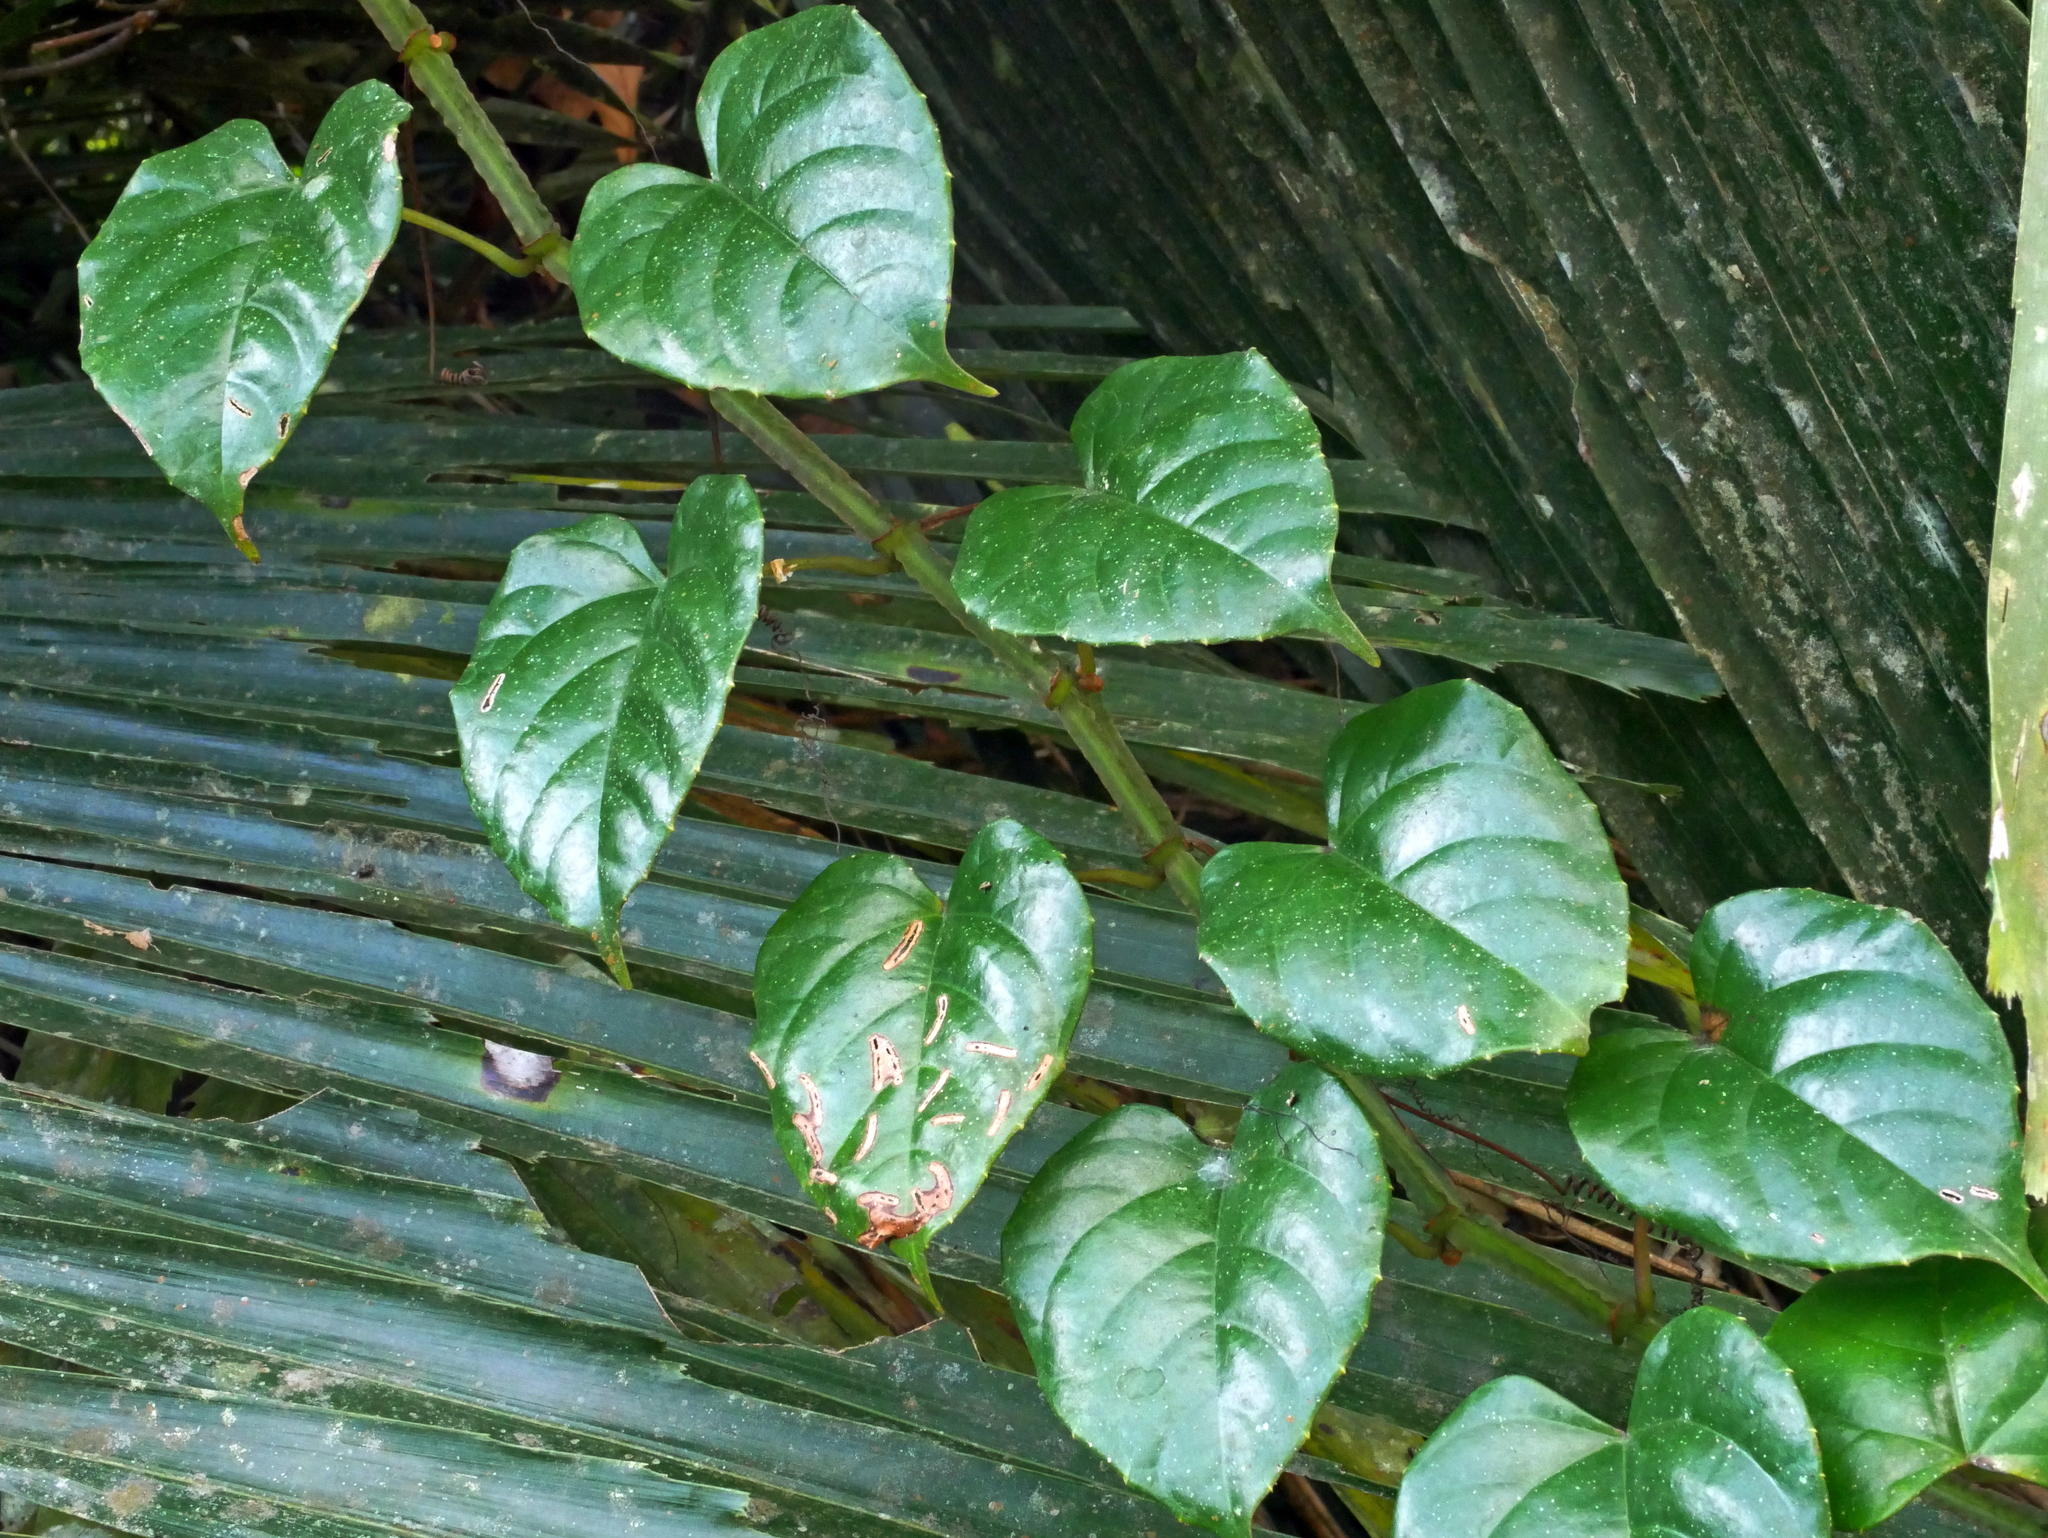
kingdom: Plantae
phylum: Tracheophyta
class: Magnoliopsida
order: Vitales
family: Vitaceae
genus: Cissus
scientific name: Cissus pteroclada
